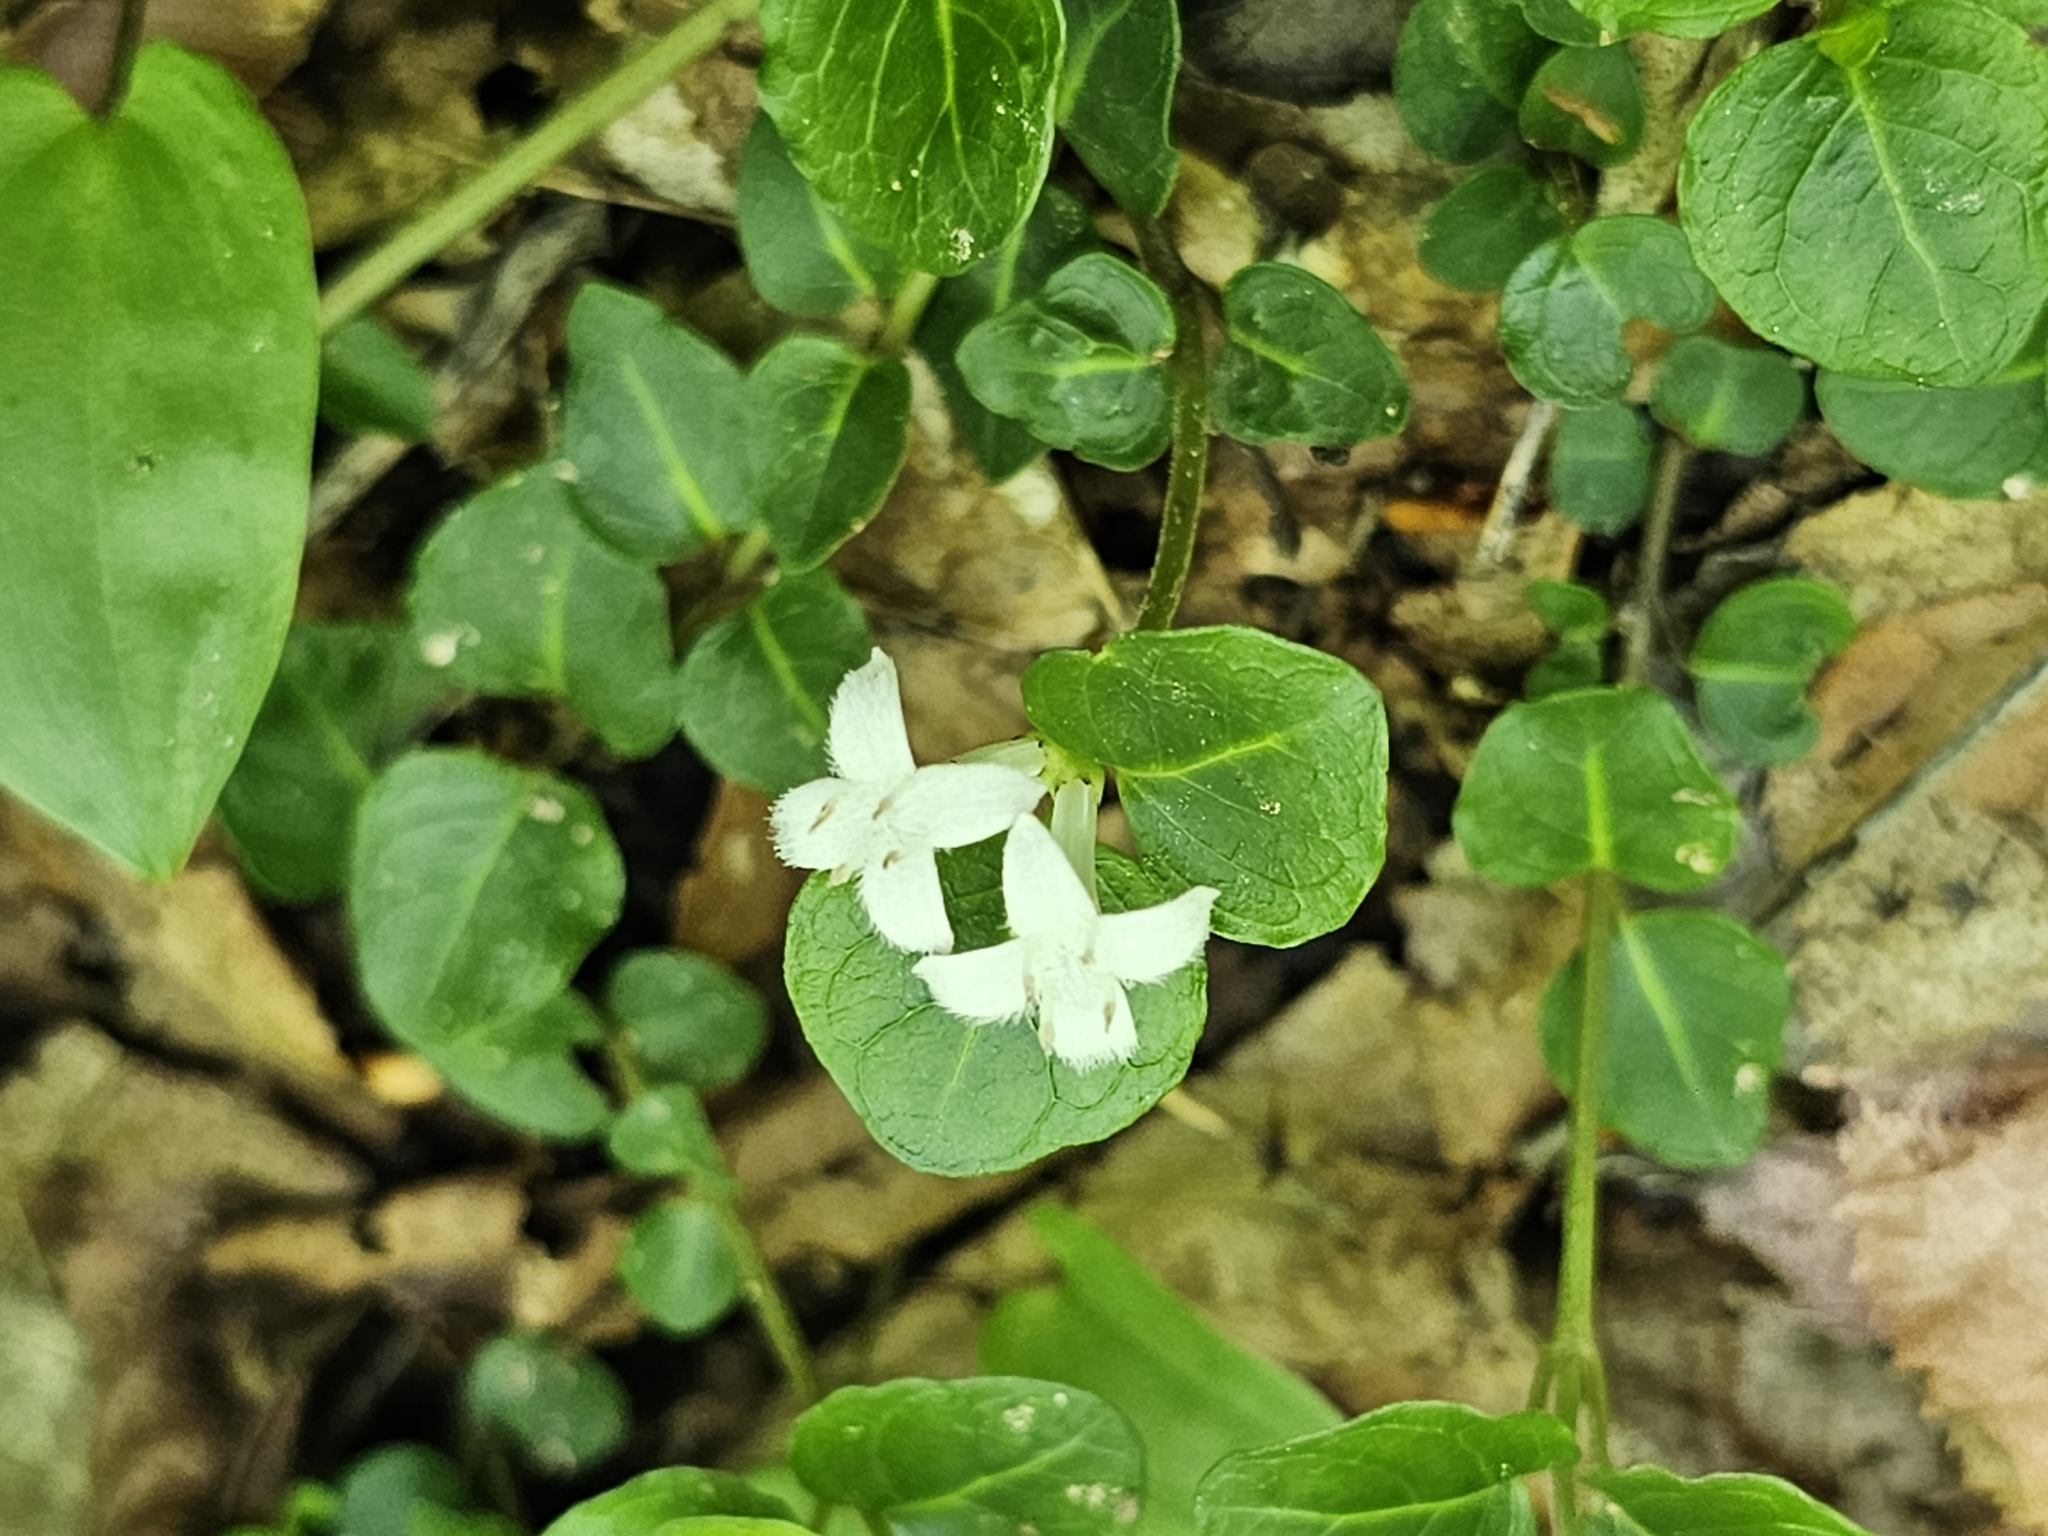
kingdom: Animalia
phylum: Arthropoda
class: Insecta
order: Lepidoptera
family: Nymphalidae
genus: Limenitis
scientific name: Limenitis arthemis
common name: Red-spotted admiral
